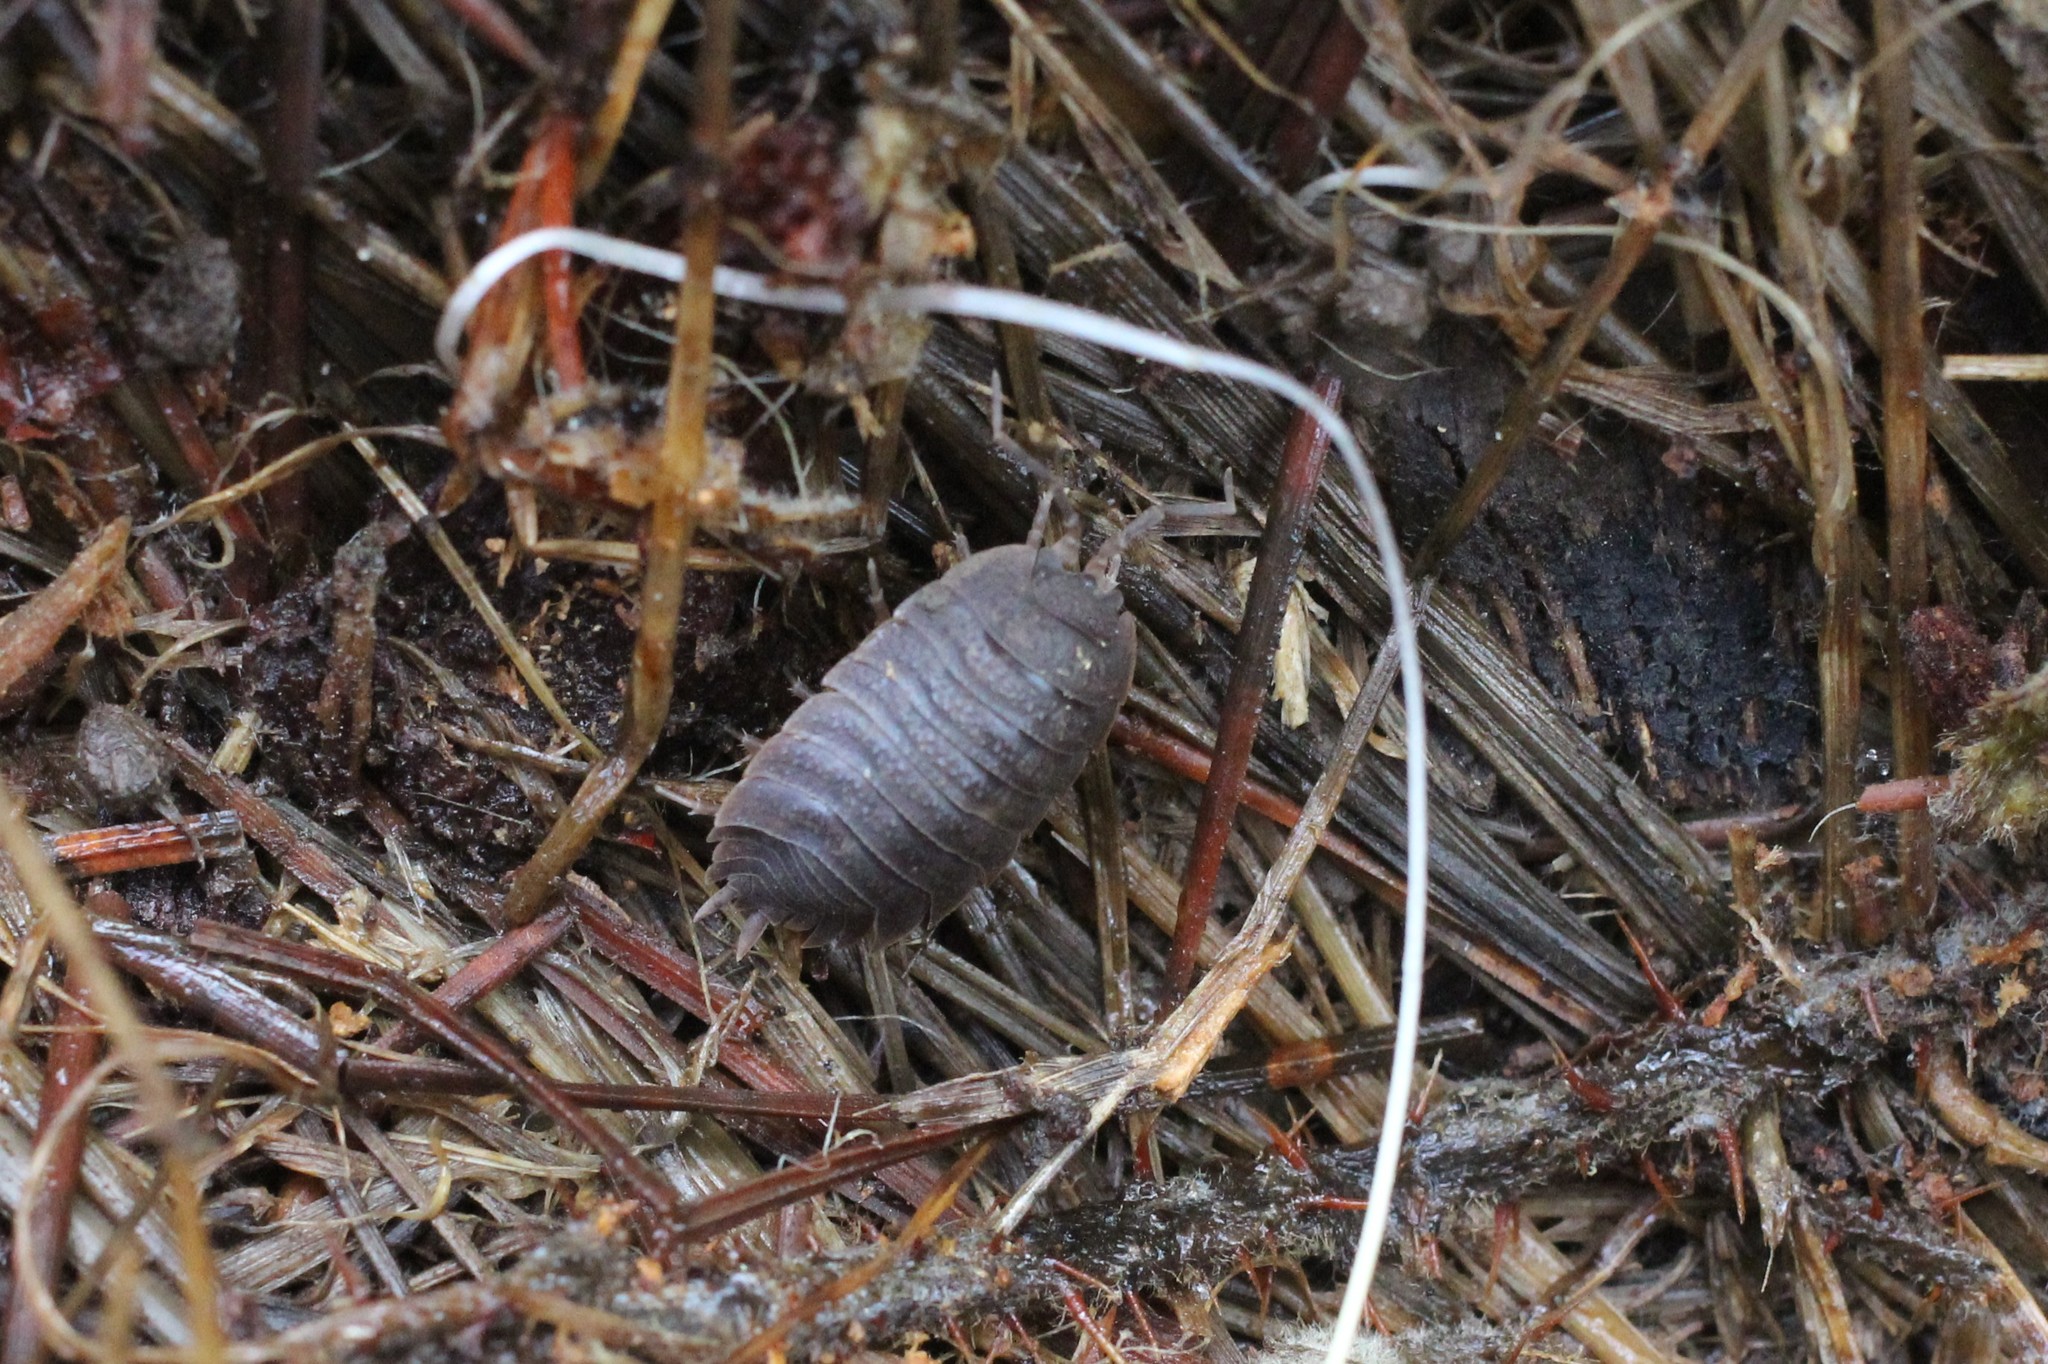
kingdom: Animalia
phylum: Arthropoda
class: Malacostraca
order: Isopoda
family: Porcellionidae
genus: Porcellio
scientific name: Porcellio dilatatus
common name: Isopod
